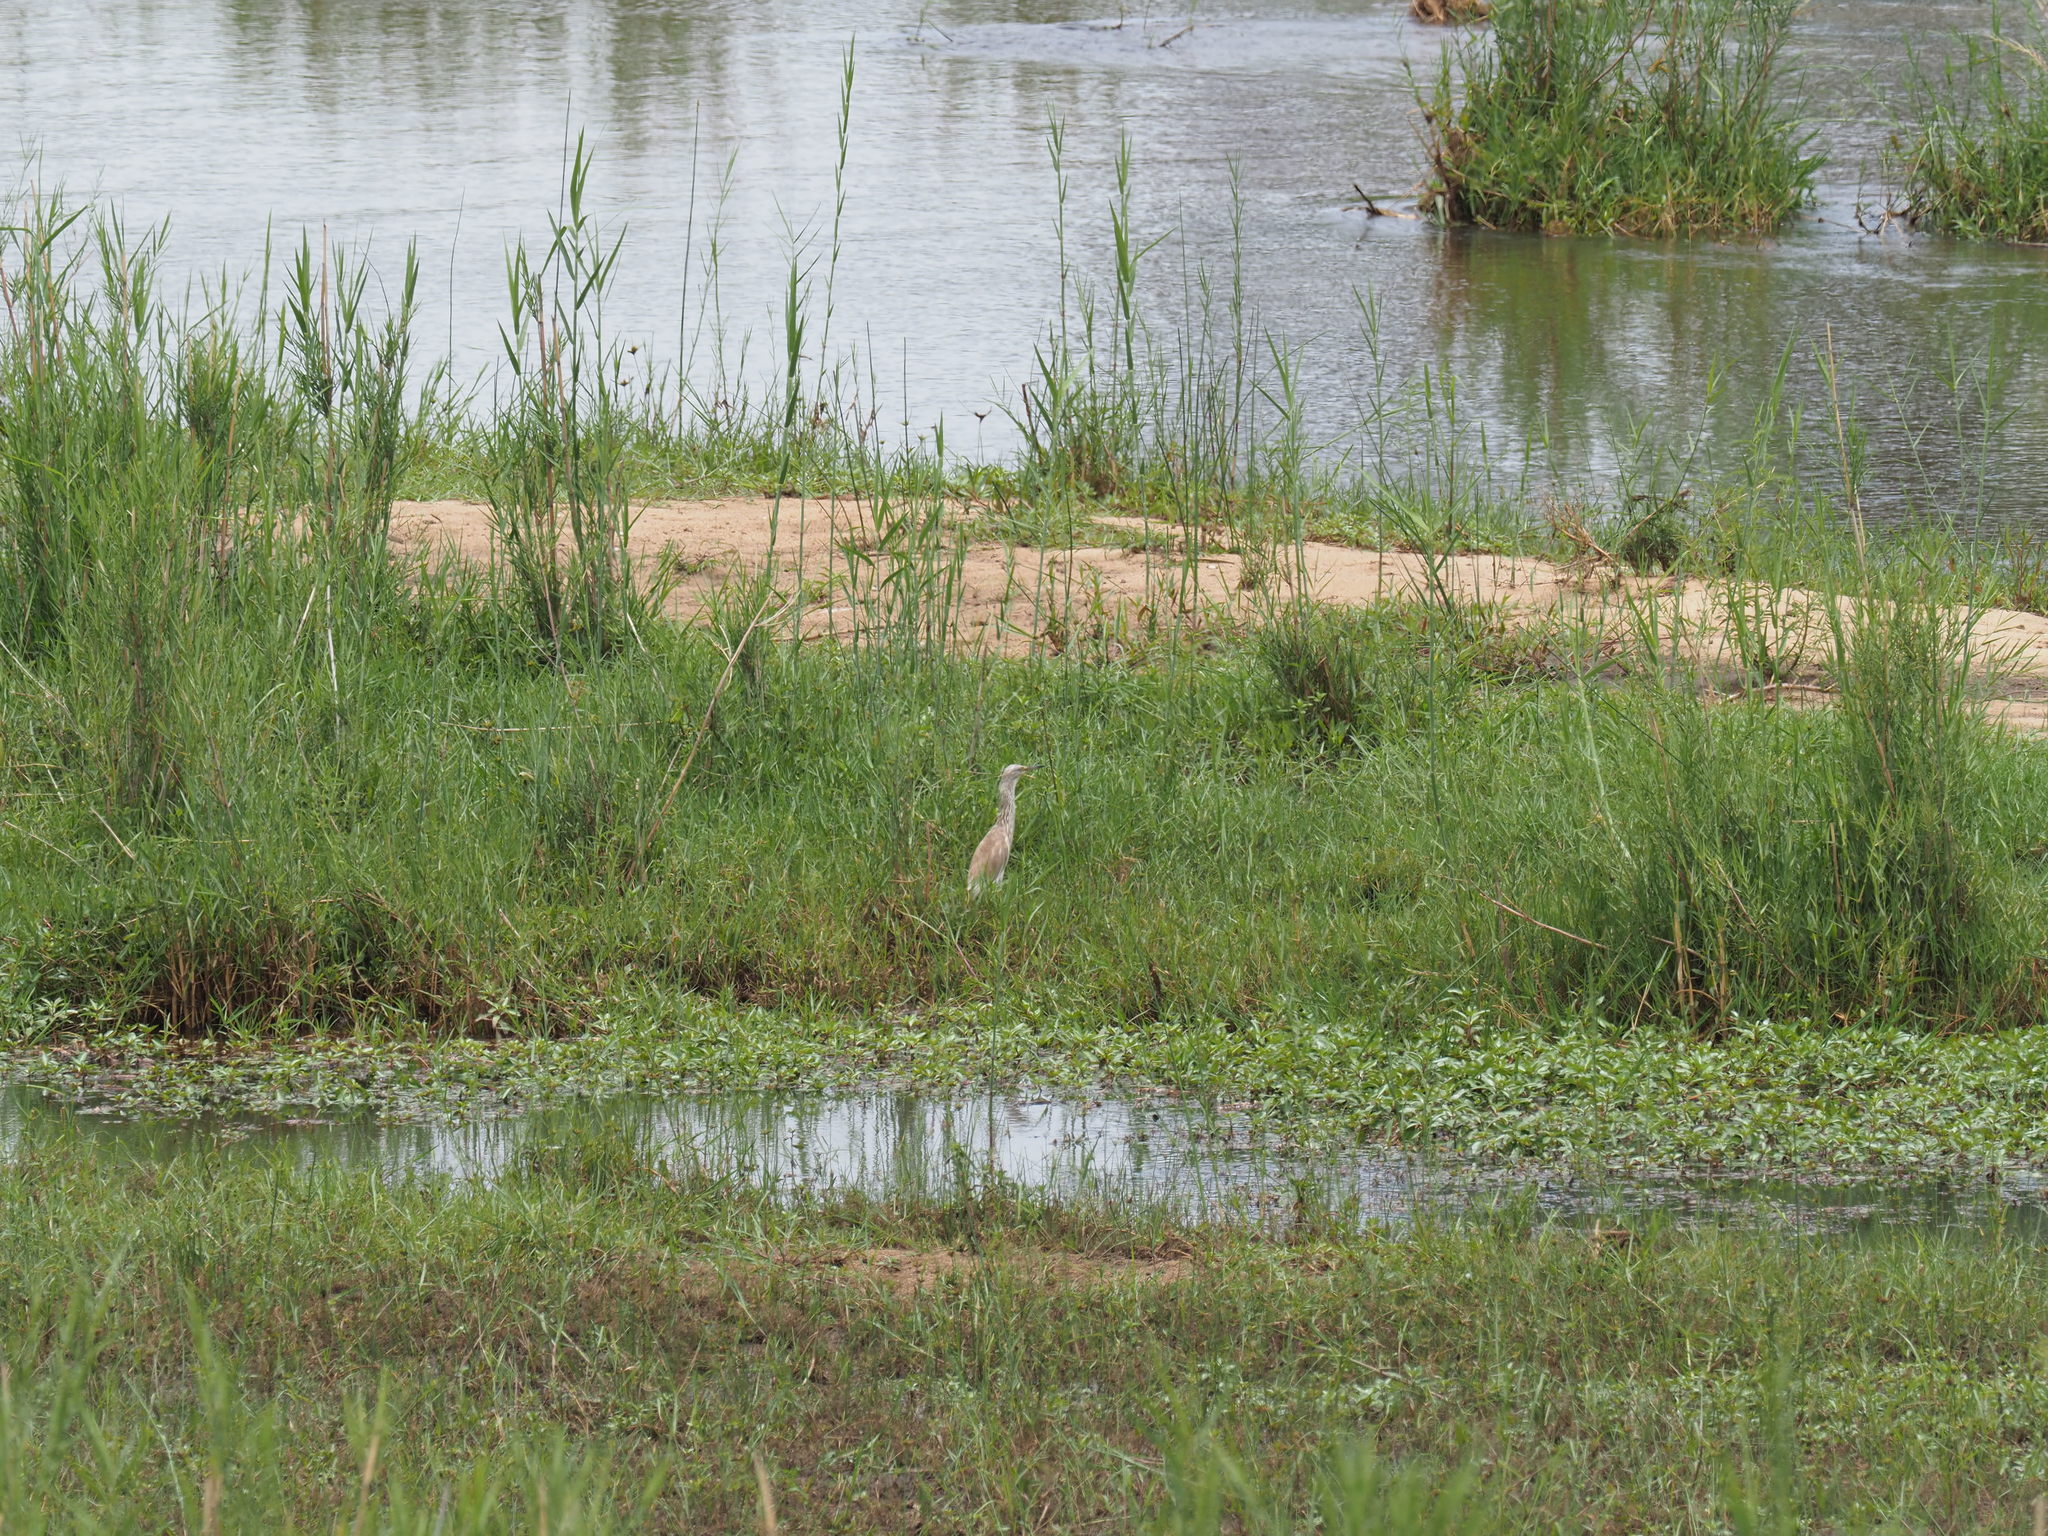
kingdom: Animalia
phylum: Chordata
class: Aves
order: Pelecaniformes
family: Ardeidae
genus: Ardeola
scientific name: Ardeola ralloides
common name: Squacco heron
